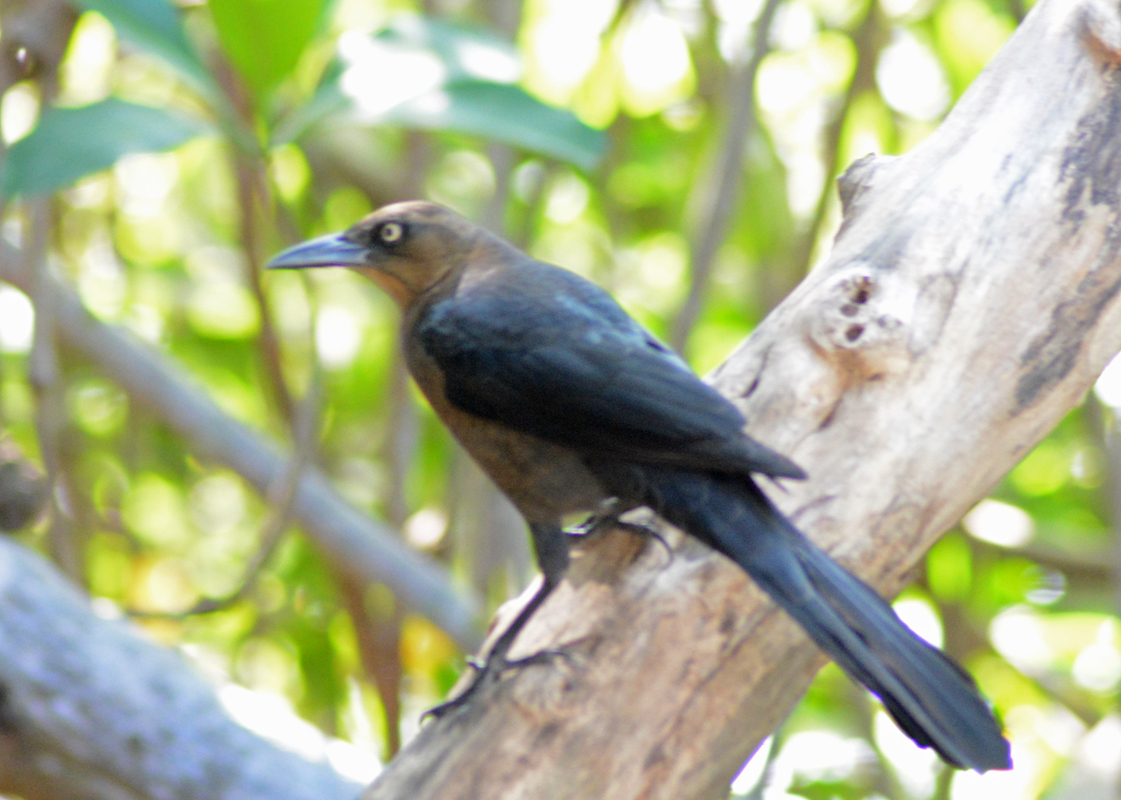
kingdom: Animalia
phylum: Chordata
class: Aves
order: Passeriformes
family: Icteridae
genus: Quiscalus
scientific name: Quiscalus mexicanus
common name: Great-tailed grackle
